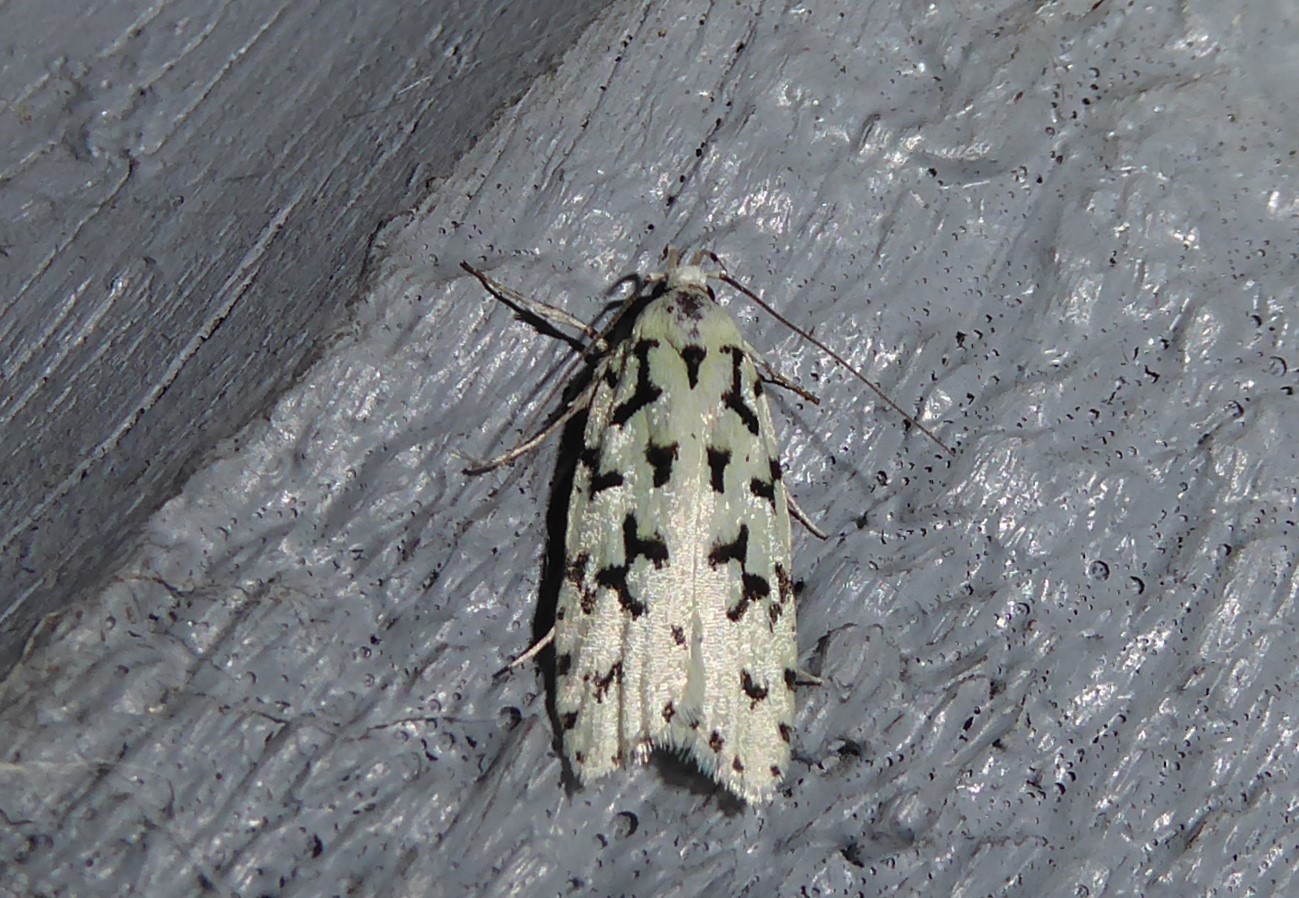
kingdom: Animalia
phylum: Arthropoda
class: Insecta
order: Lepidoptera
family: Oecophoridae
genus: Izatha
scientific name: Izatha huttoni
